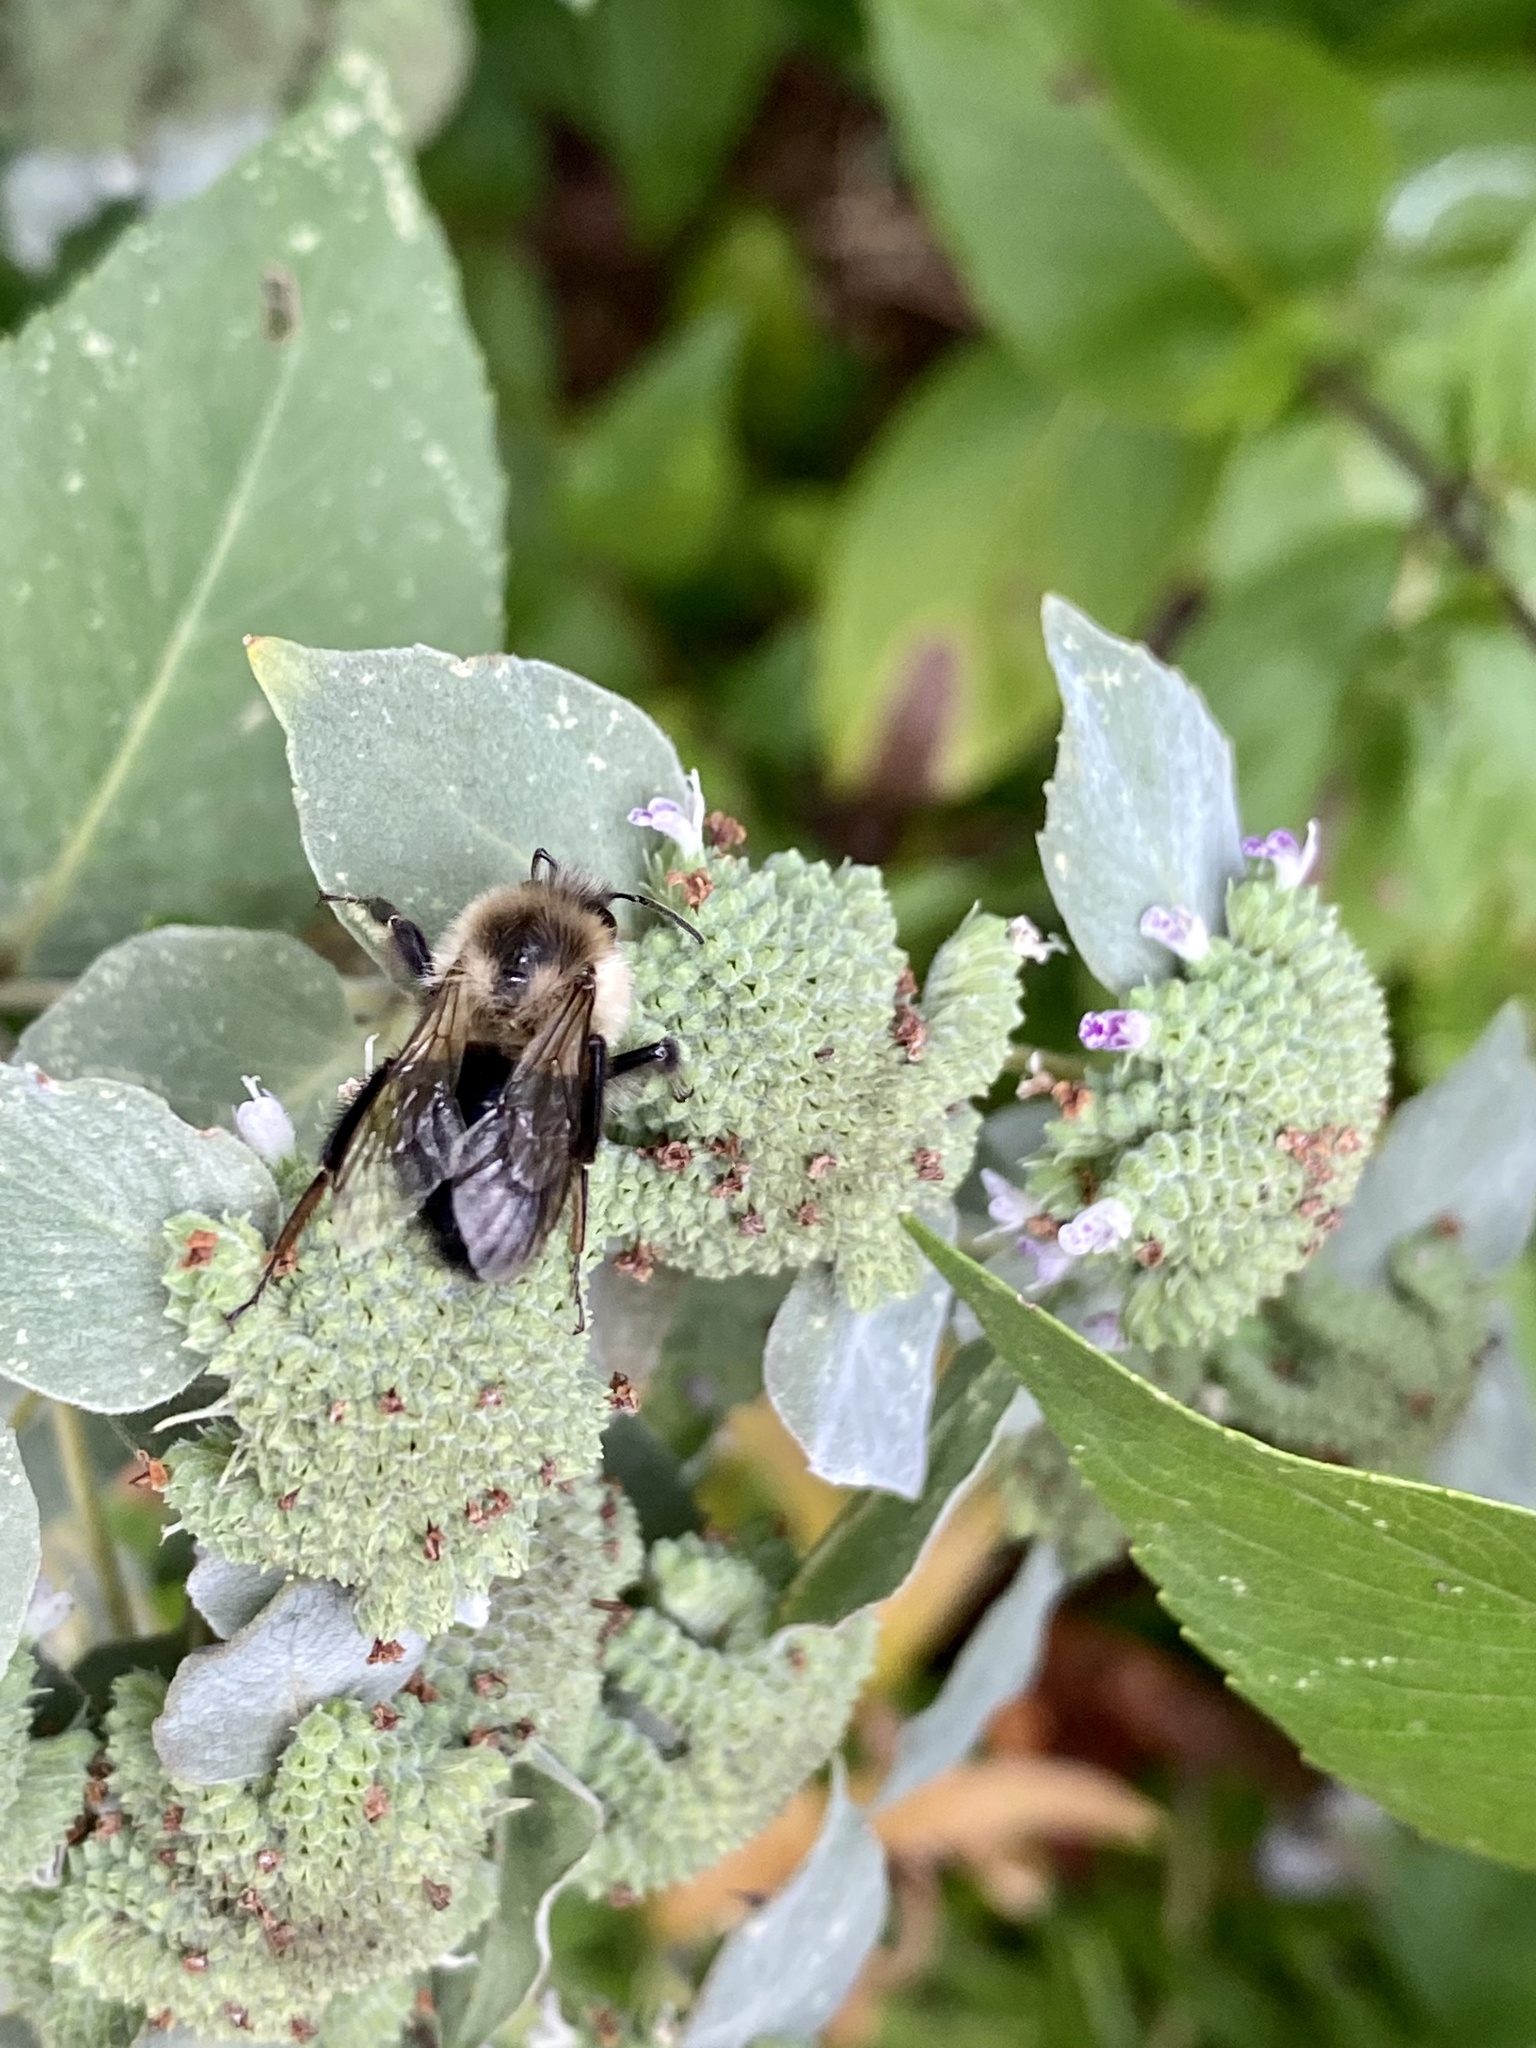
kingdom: Animalia
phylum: Arthropoda
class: Insecta
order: Hymenoptera
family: Apidae
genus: Bombus
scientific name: Bombus impatiens
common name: Common eastern bumble bee
